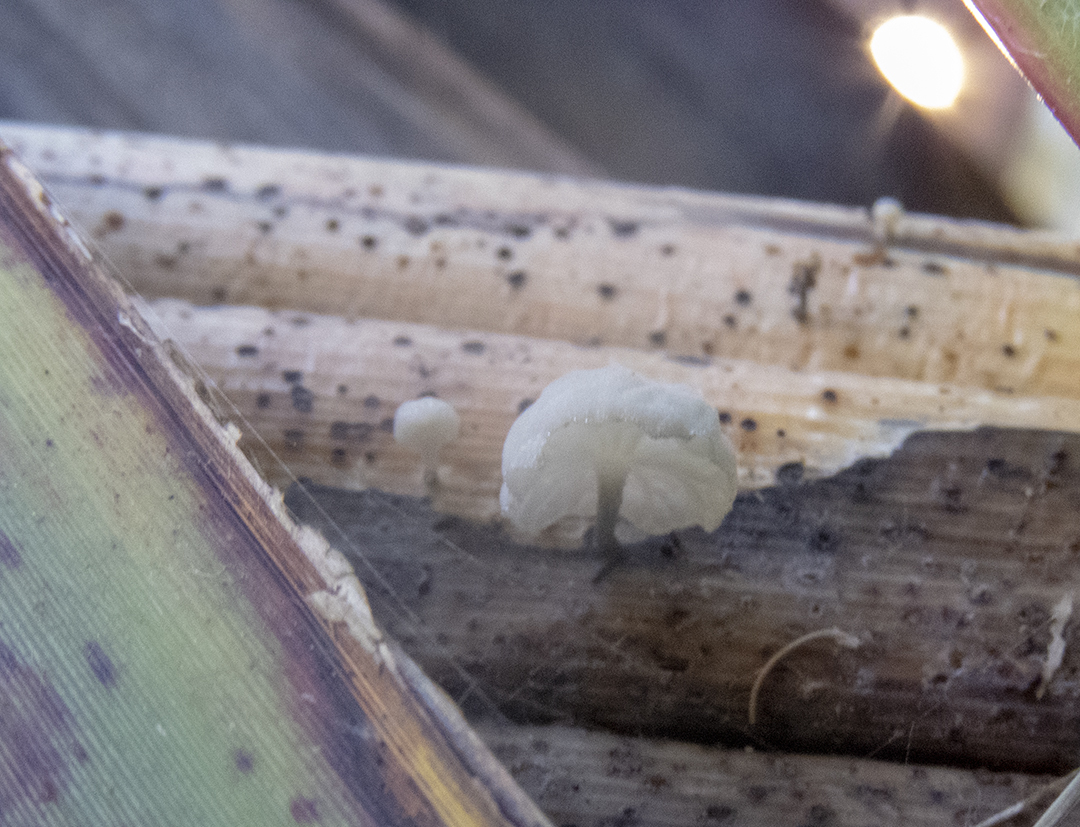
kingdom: Fungi
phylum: Basidiomycota
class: Agaricomycetes
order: Agaricales
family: Marasmiaceae
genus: Campanella
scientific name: Campanella
